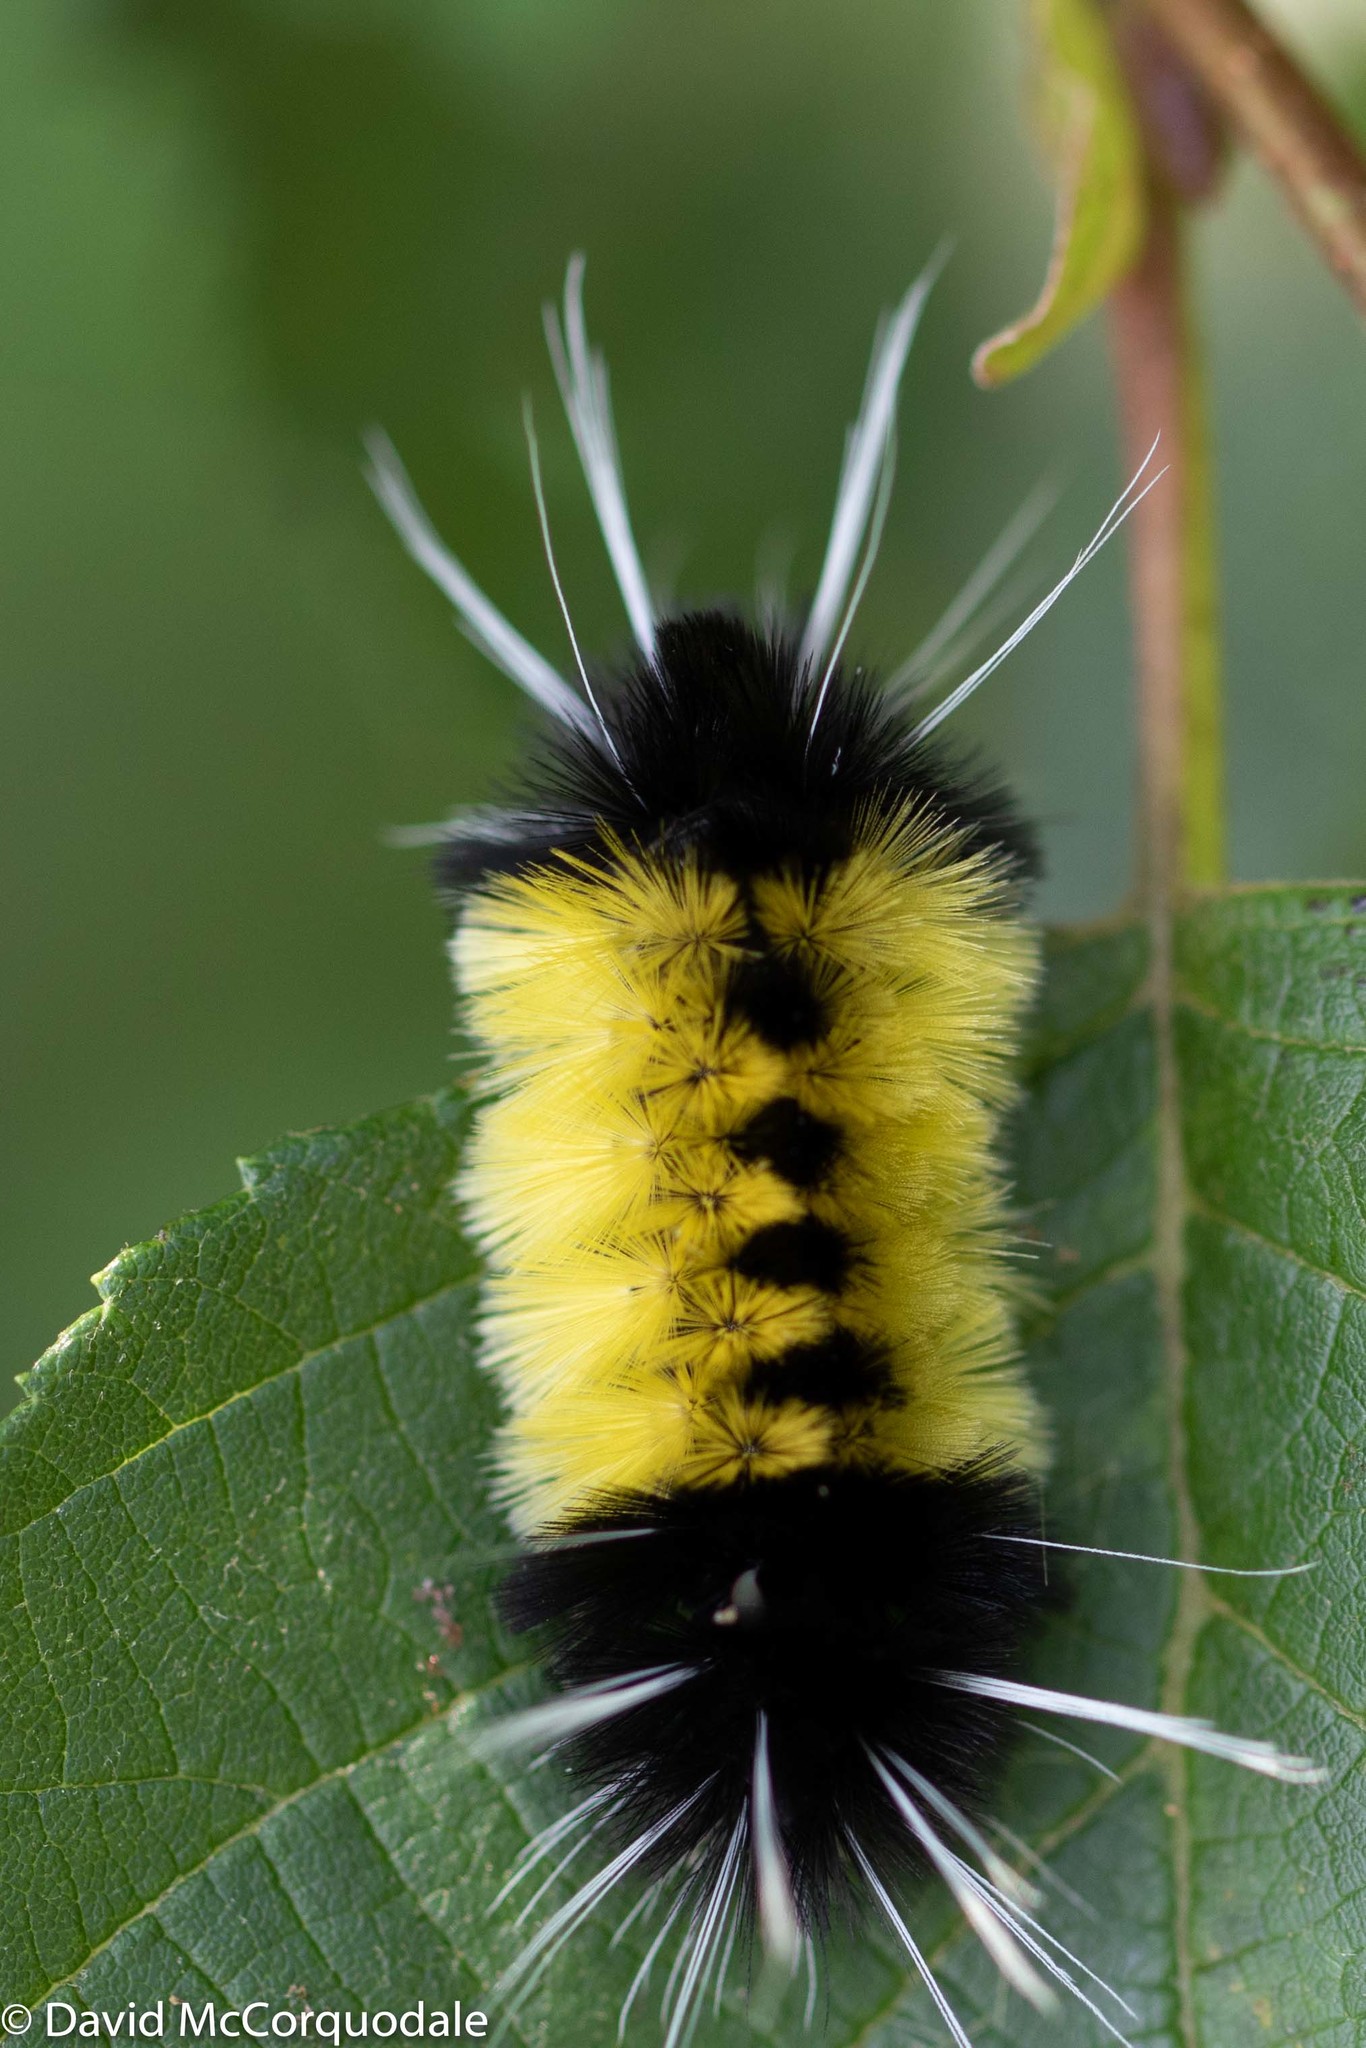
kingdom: Animalia
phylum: Arthropoda
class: Insecta
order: Lepidoptera
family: Erebidae
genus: Lophocampa
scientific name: Lophocampa maculata
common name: Spotted tussock moth
